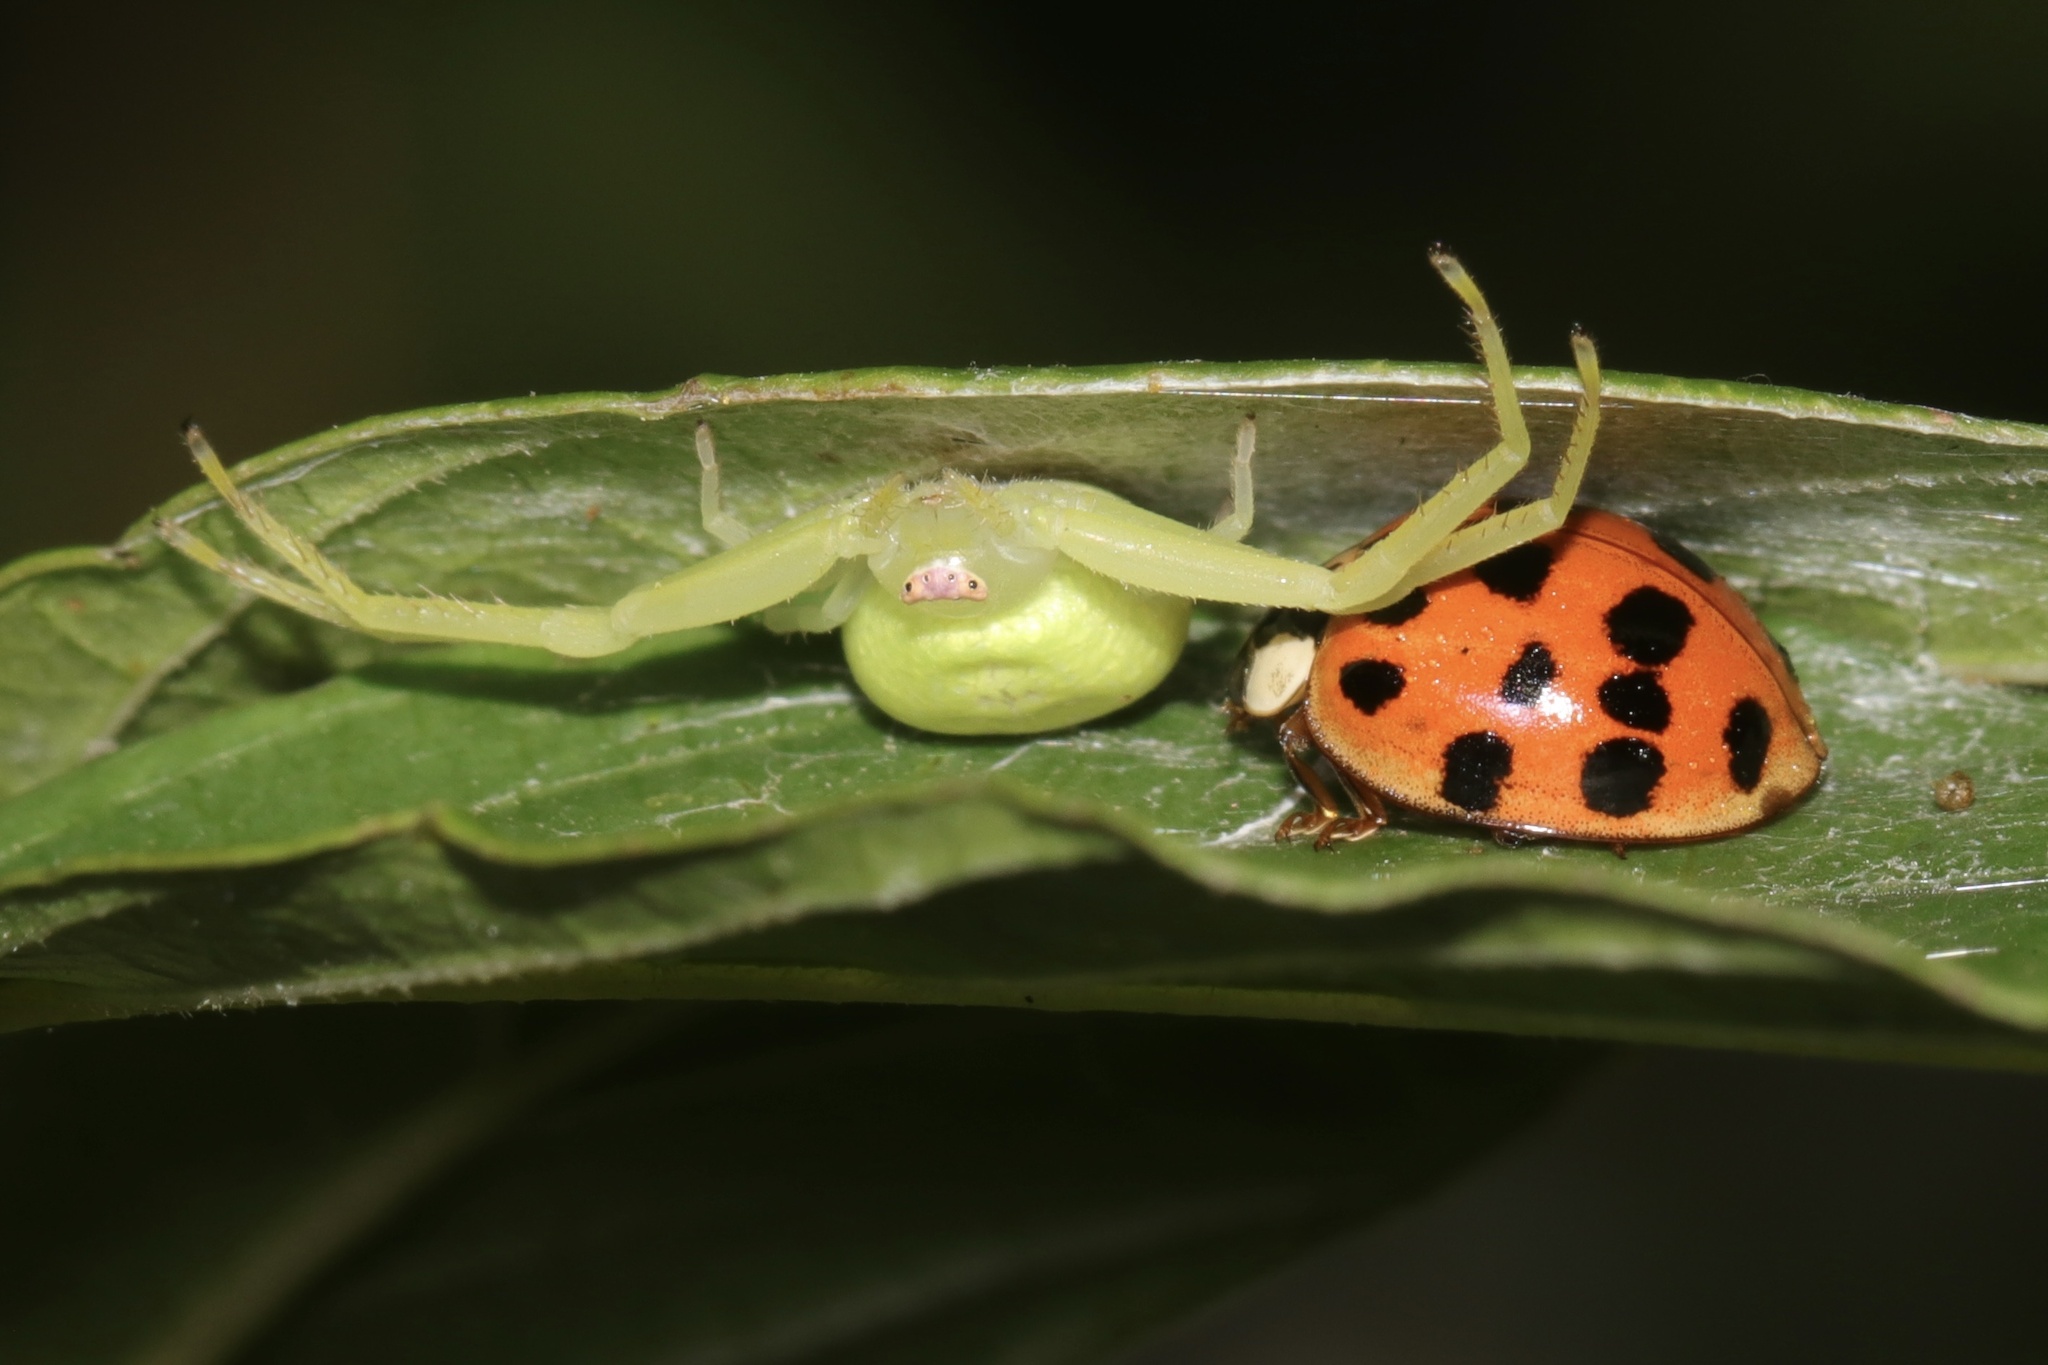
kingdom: Animalia
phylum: Arthropoda
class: Insecta
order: Coleoptera
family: Coccinellidae
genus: Harmonia
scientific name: Harmonia axyridis
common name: Harlequin ladybird
